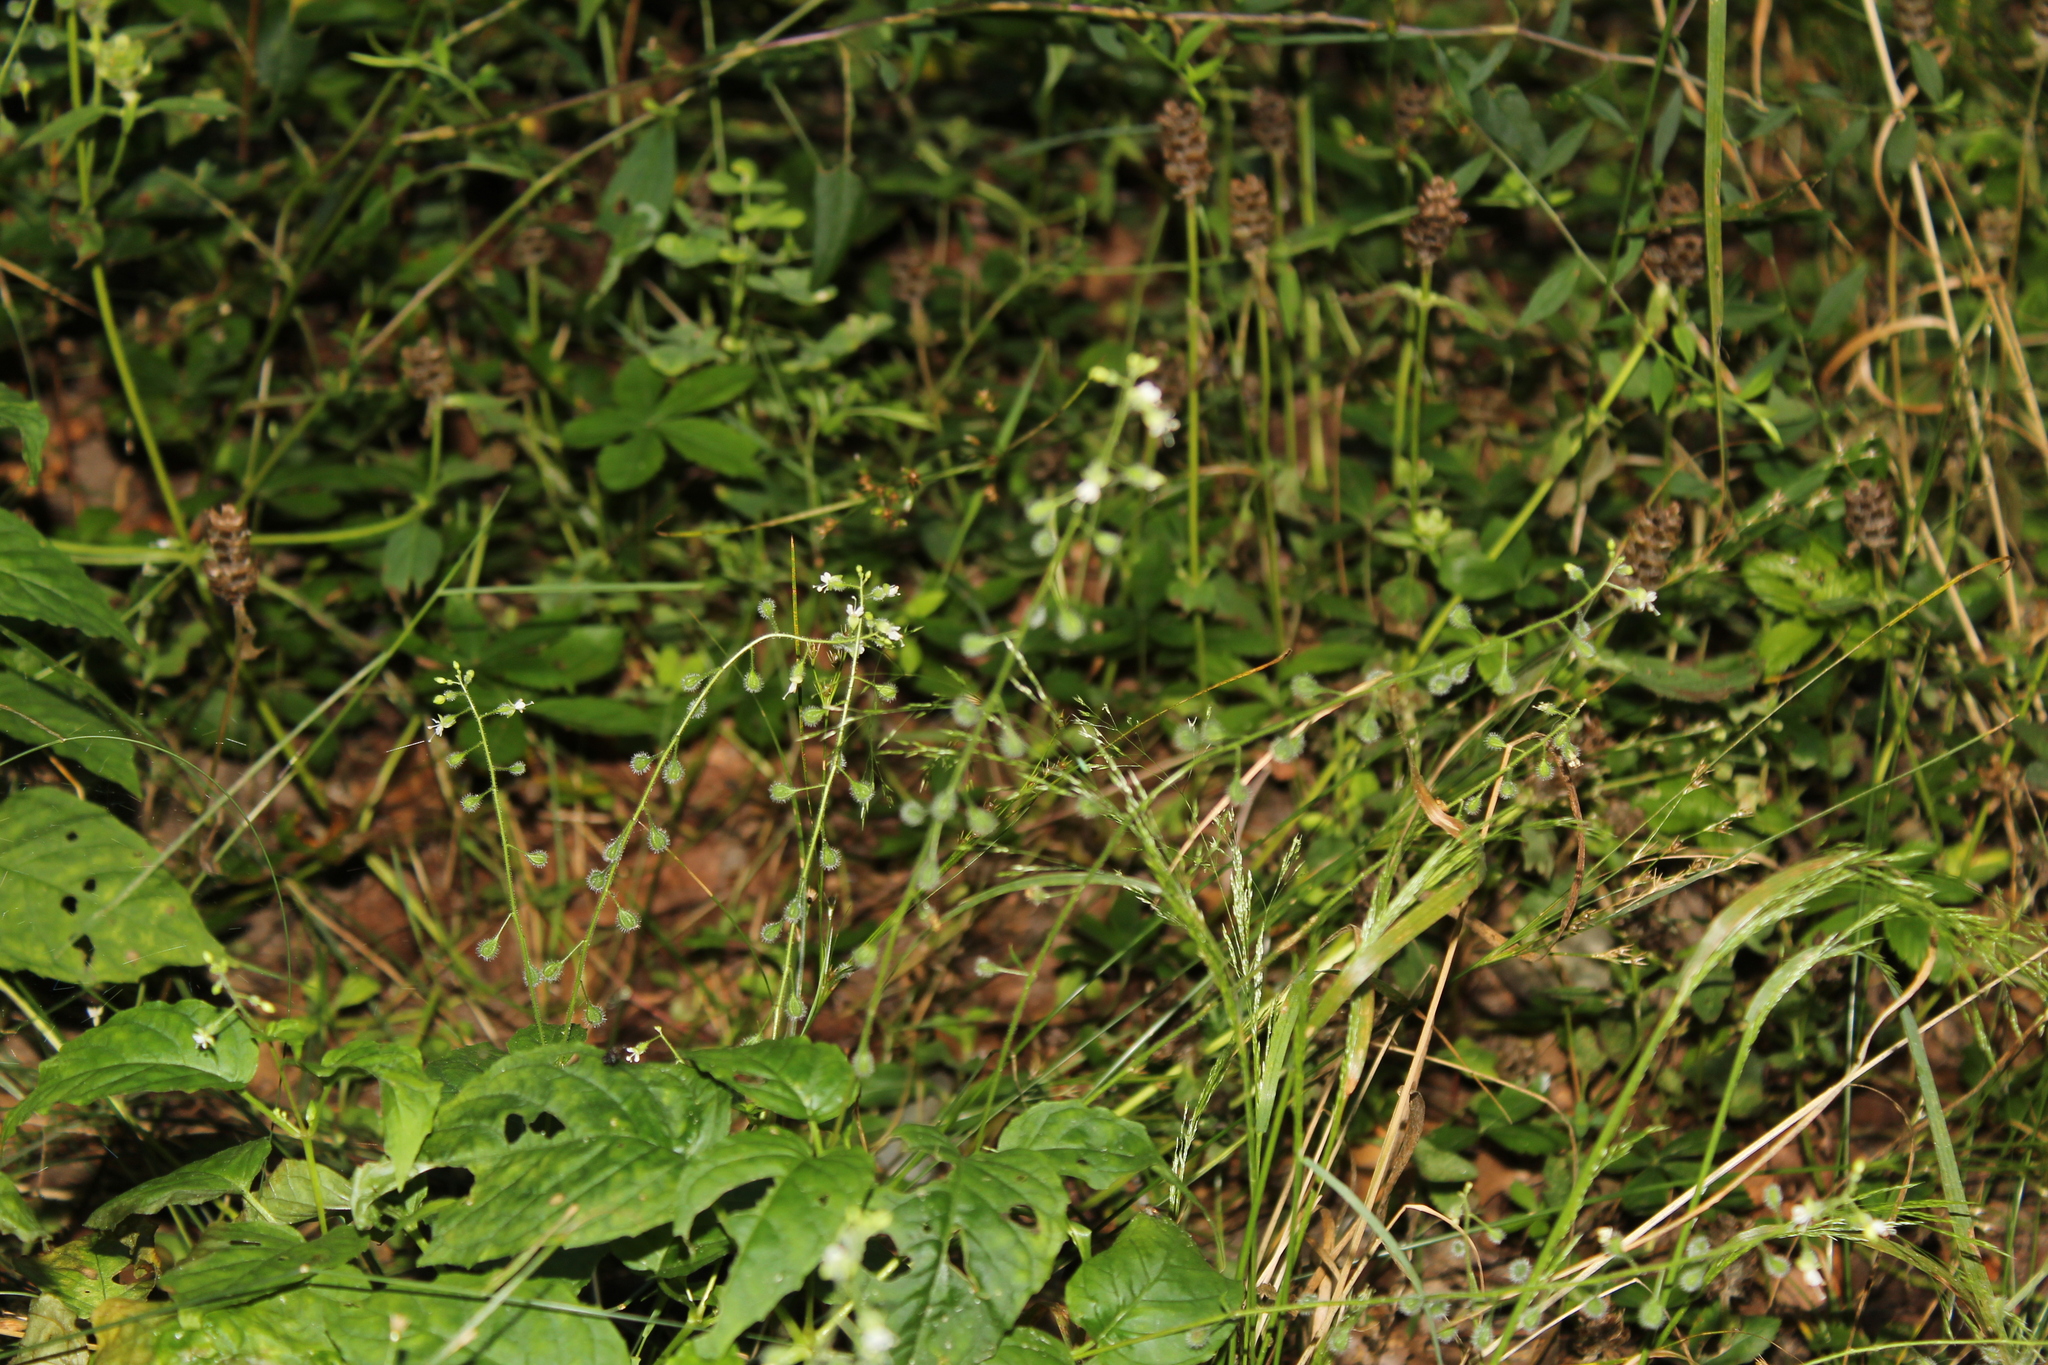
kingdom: Plantae
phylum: Tracheophyta
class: Magnoliopsida
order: Myrtales
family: Onagraceae
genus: Circaea
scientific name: Circaea canadensis
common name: Broad-leaved enchanter's nightshade
